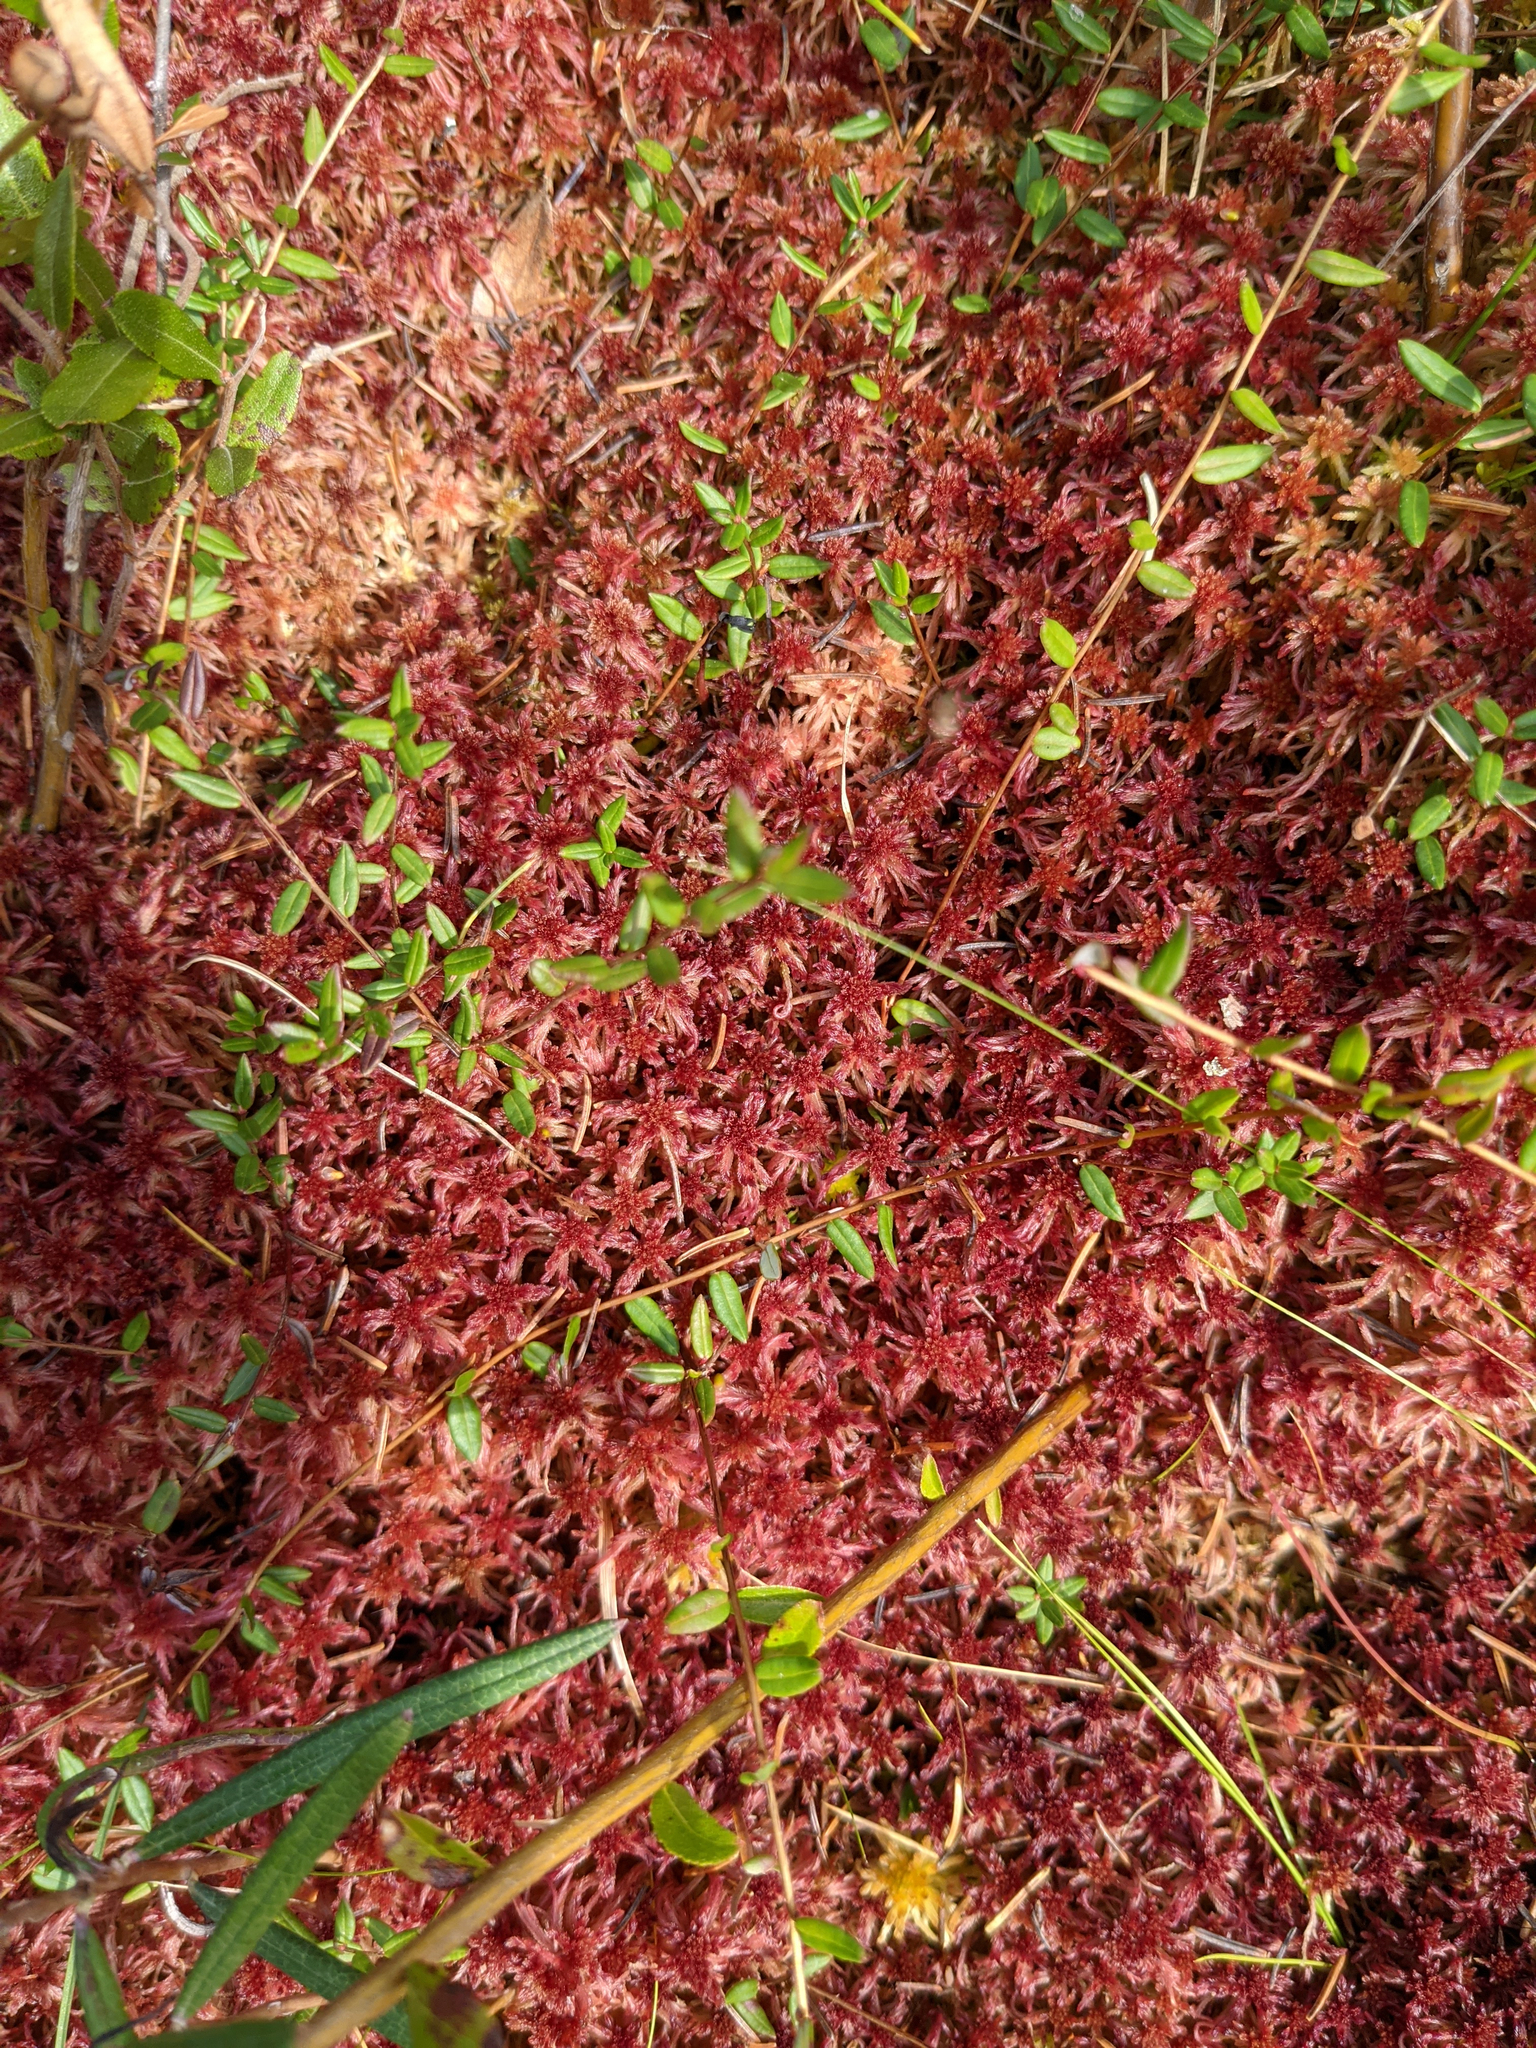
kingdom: Plantae
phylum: Tracheophyta
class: Magnoliopsida
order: Ericales
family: Ericaceae
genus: Vaccinium
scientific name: Vaccinium oxycoccos
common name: Cranberry
